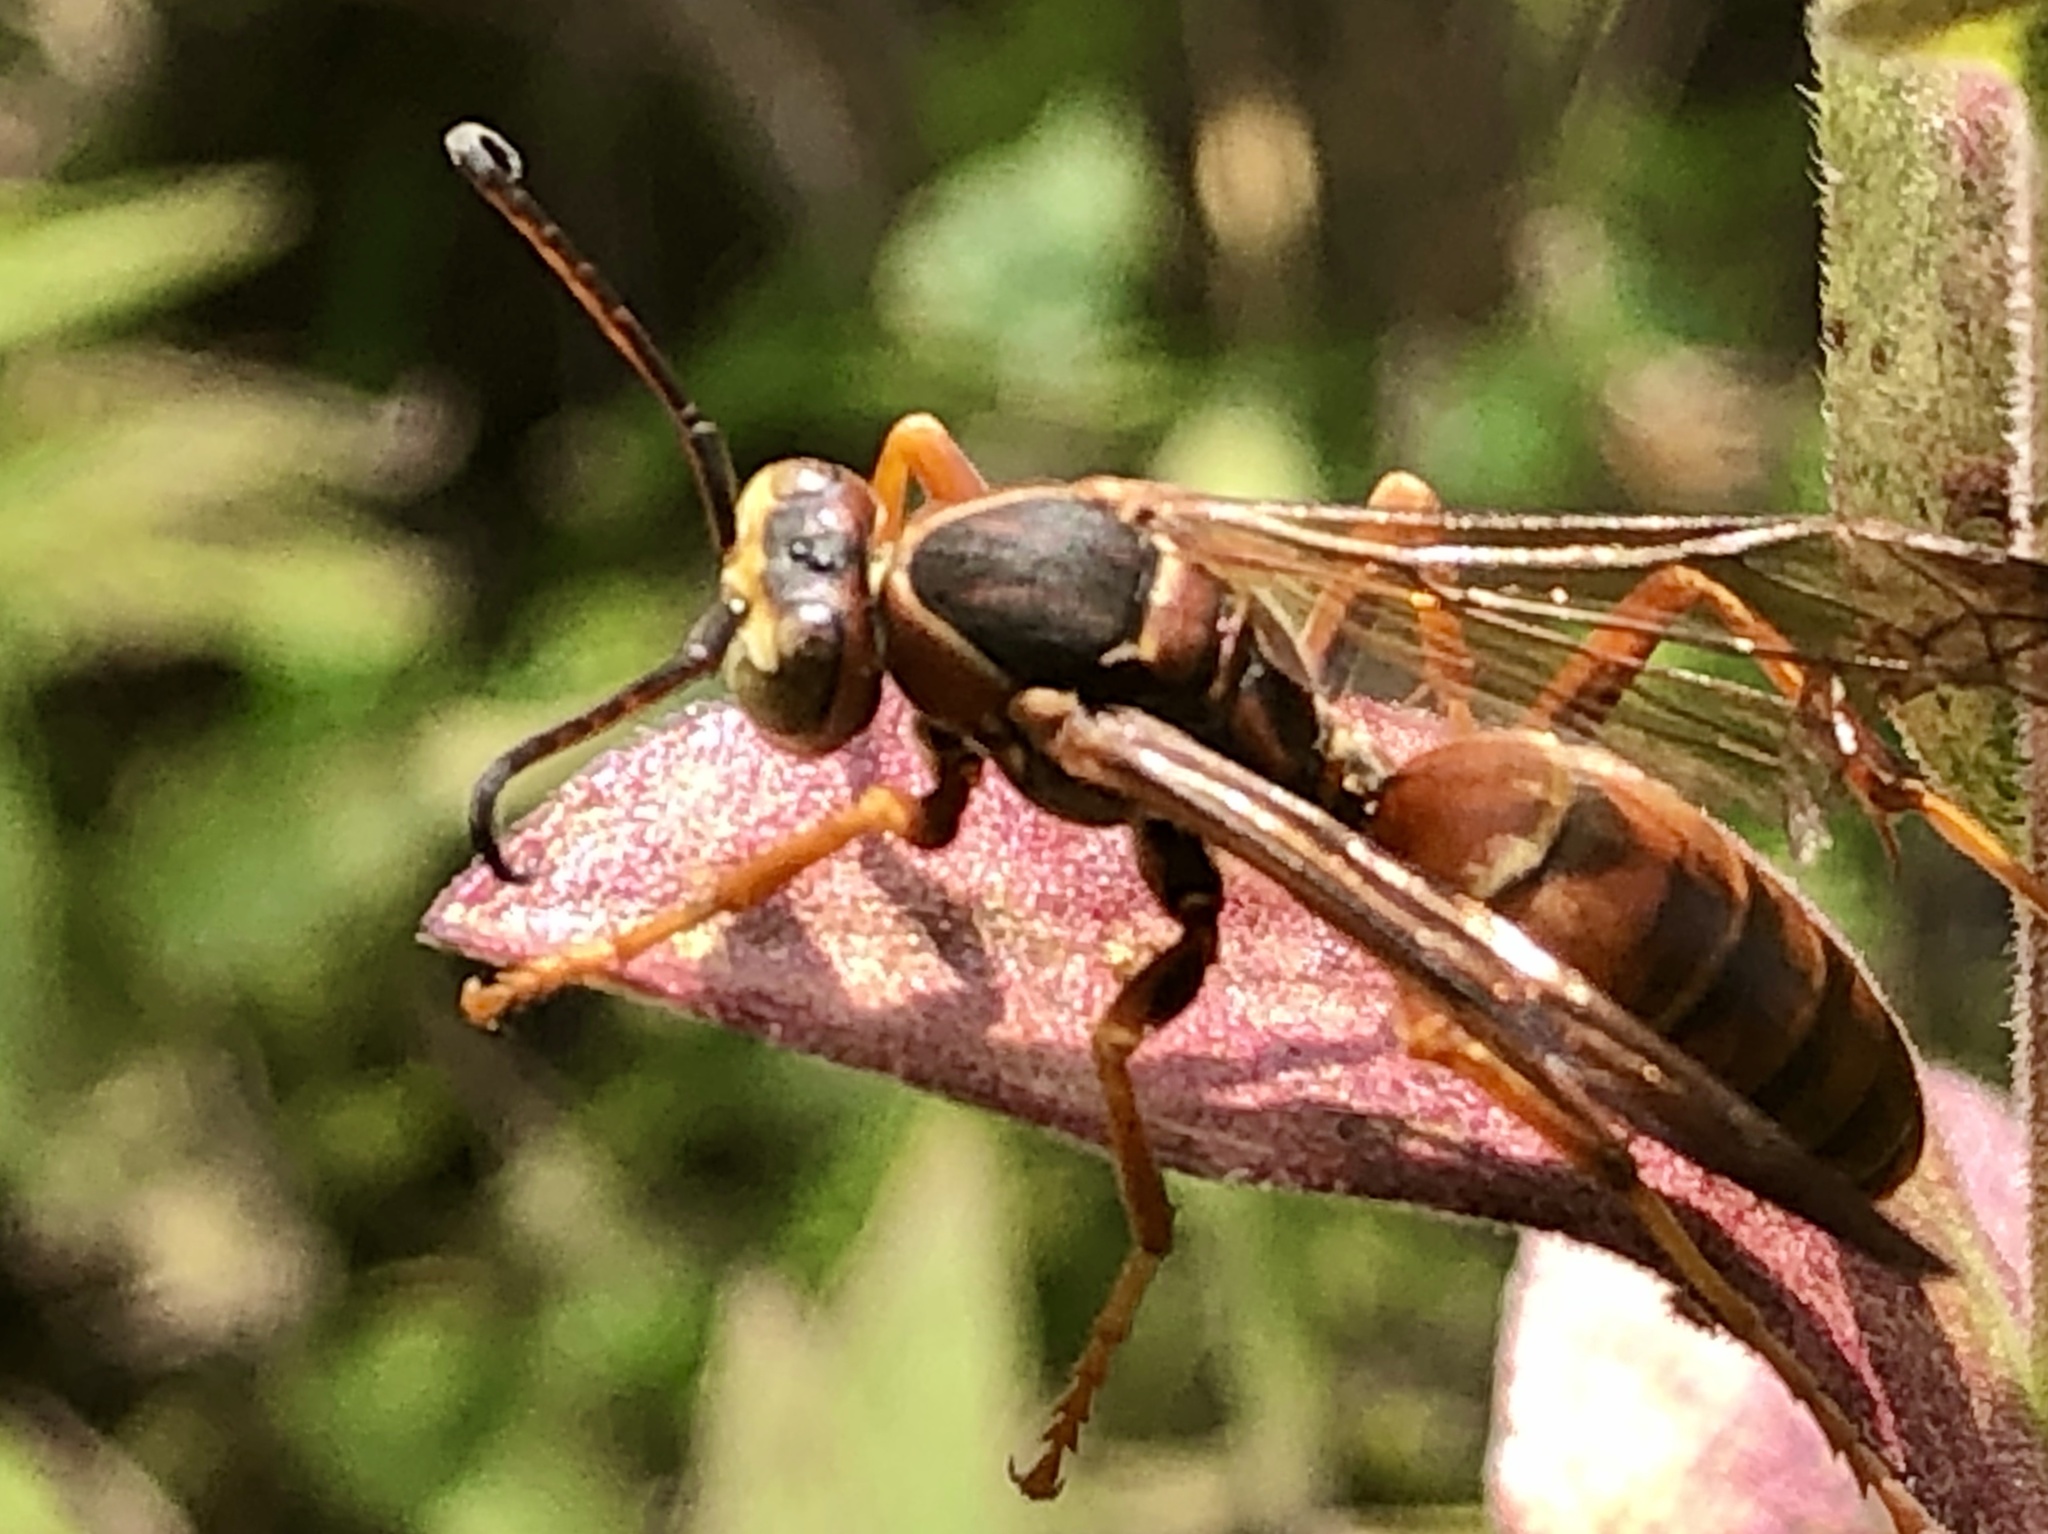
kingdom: Animalia
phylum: Arthropoda
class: Insecta
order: Hymenoptera
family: Eumenidae
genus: Polistes
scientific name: Polistes fuscatus
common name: Dark paper wasp
